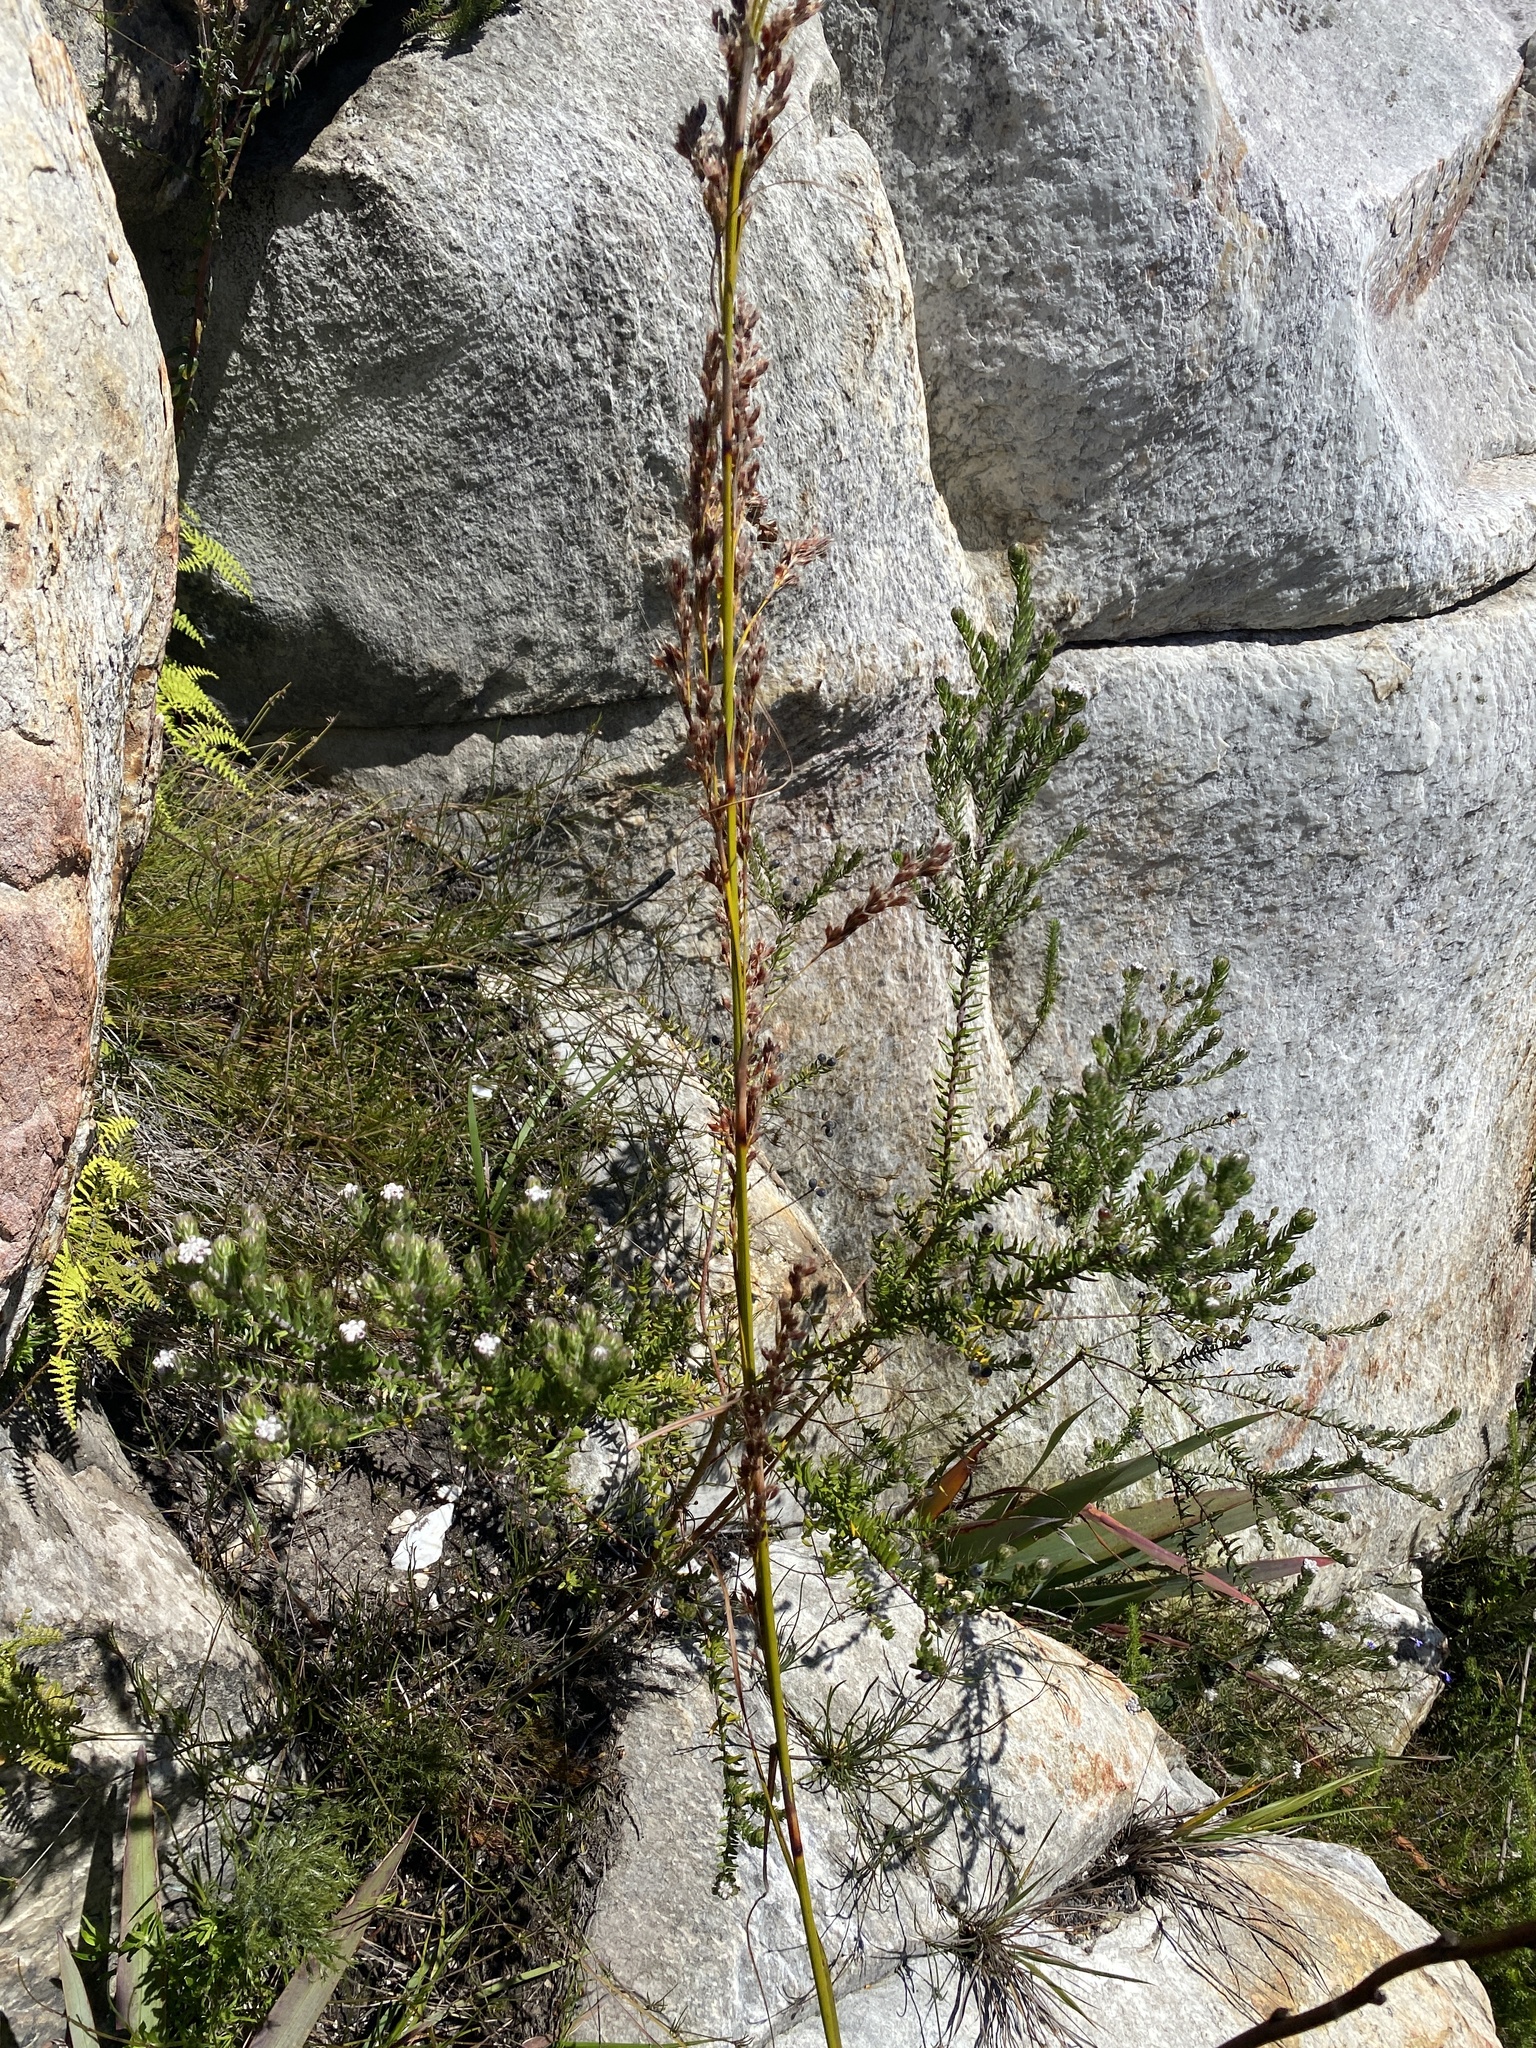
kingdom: Plantae
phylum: Tracheophyta
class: Magnoliopsida
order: Rosales
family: Rhamnaceae
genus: Phylica
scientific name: Phylica purpurea
